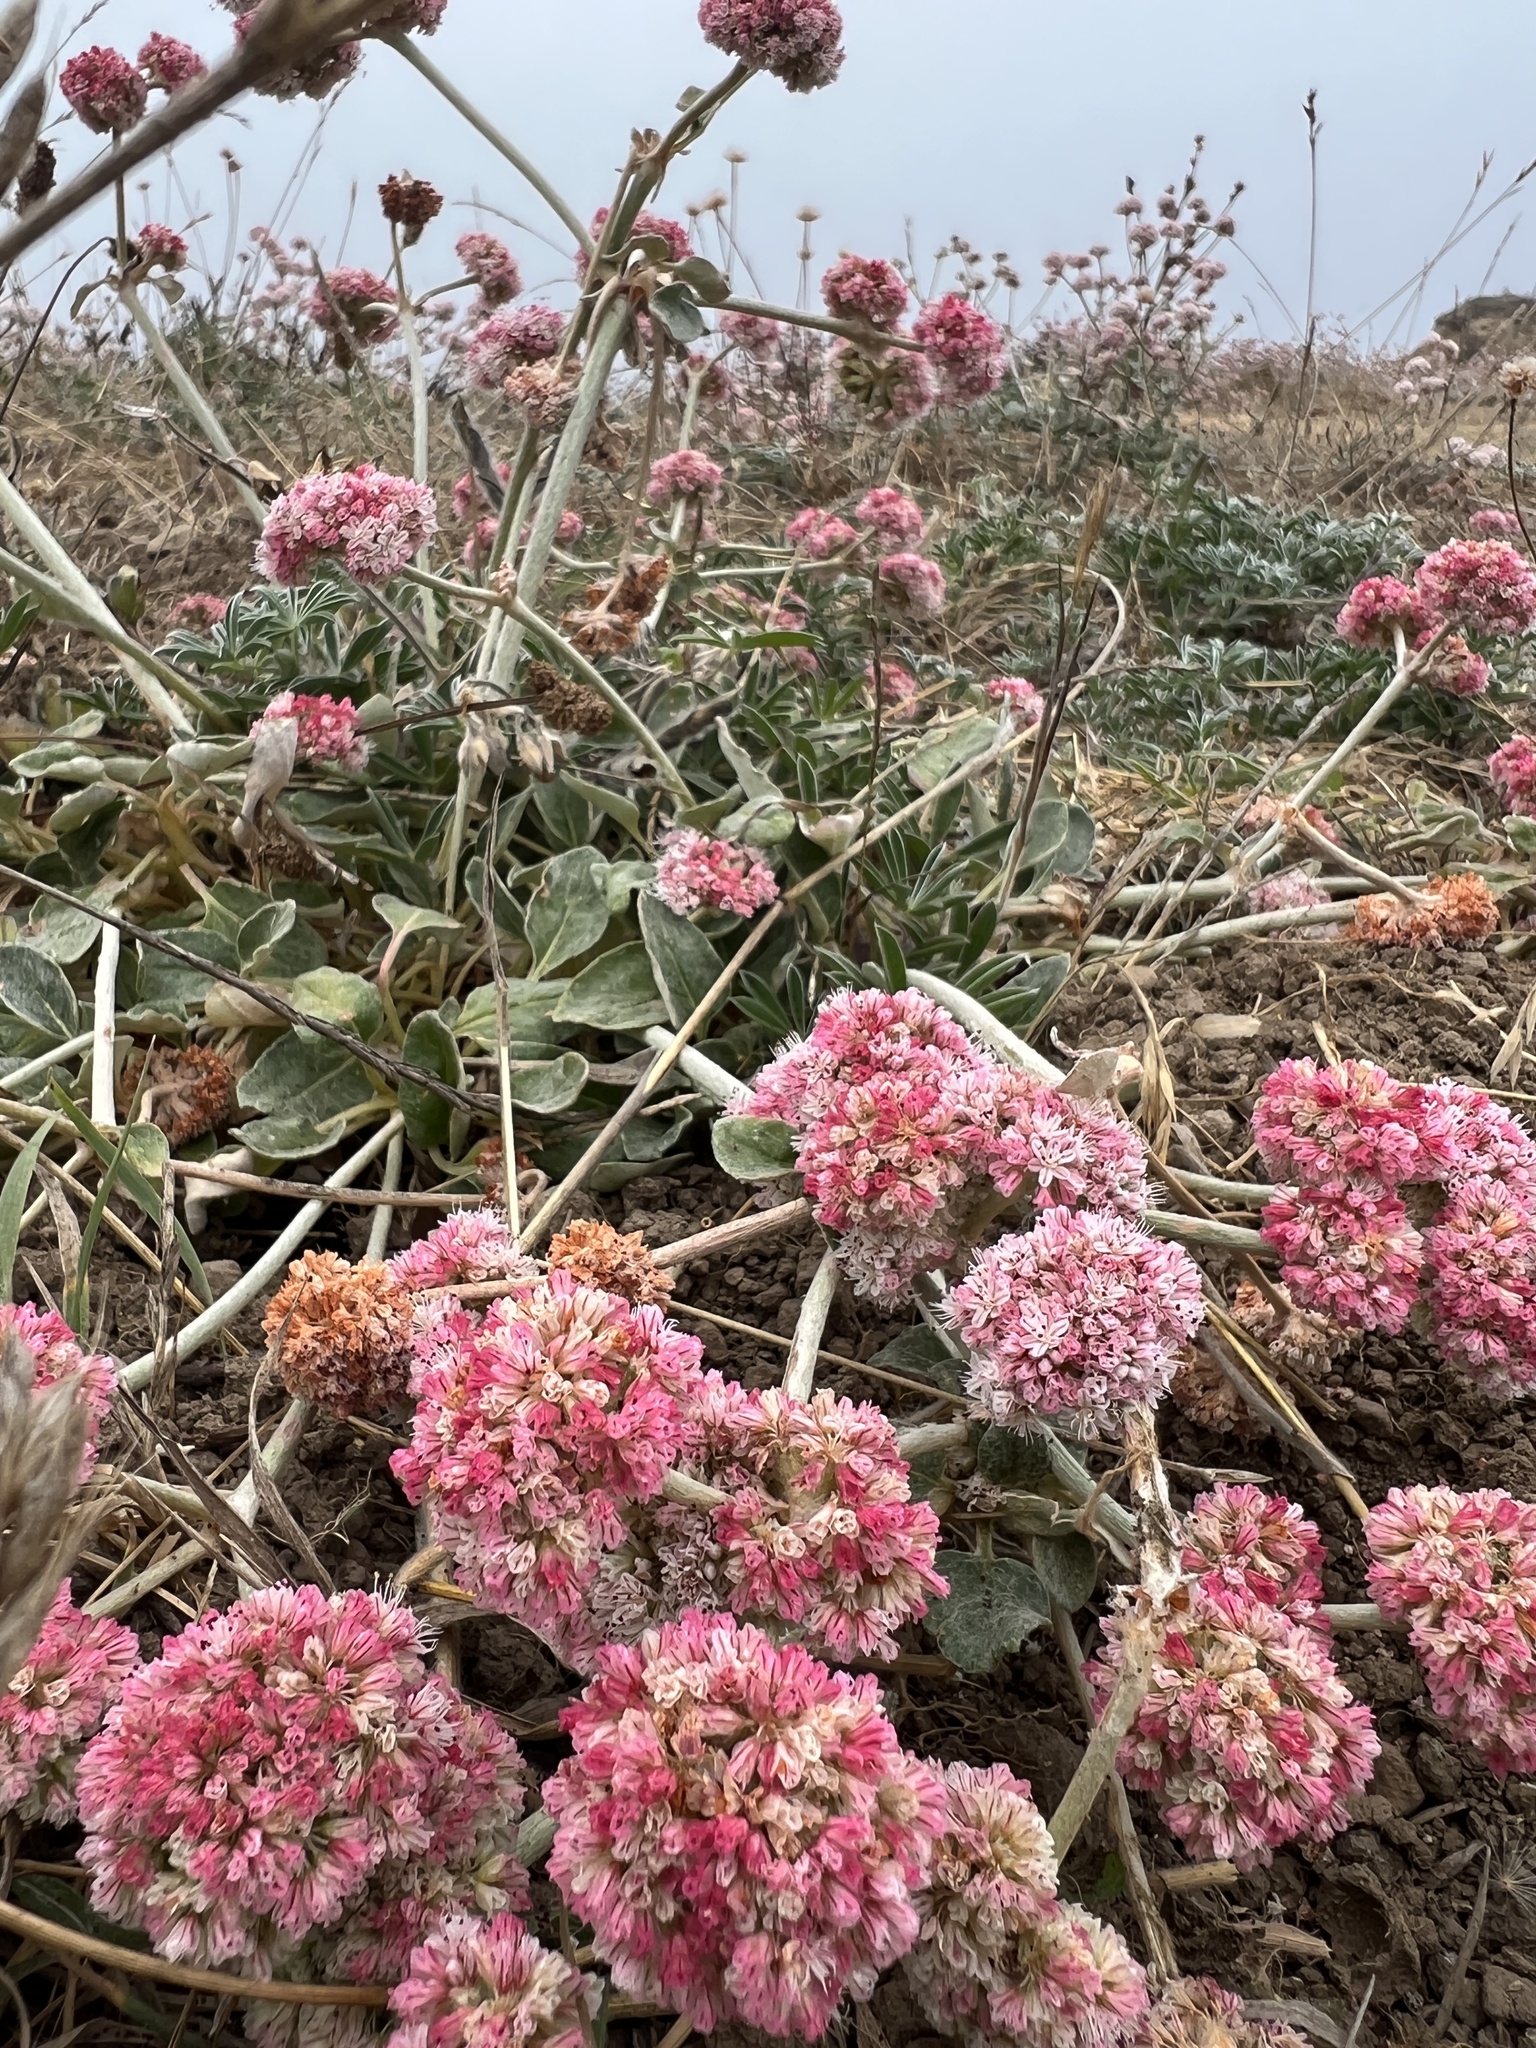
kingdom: Plantae
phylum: Tracheophyta
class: Magnoliopsida
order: Caryophyllales
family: Polygonaceae
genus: Eriogonum
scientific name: Eriogonum latifolium
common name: Seaside wild buckwheat
